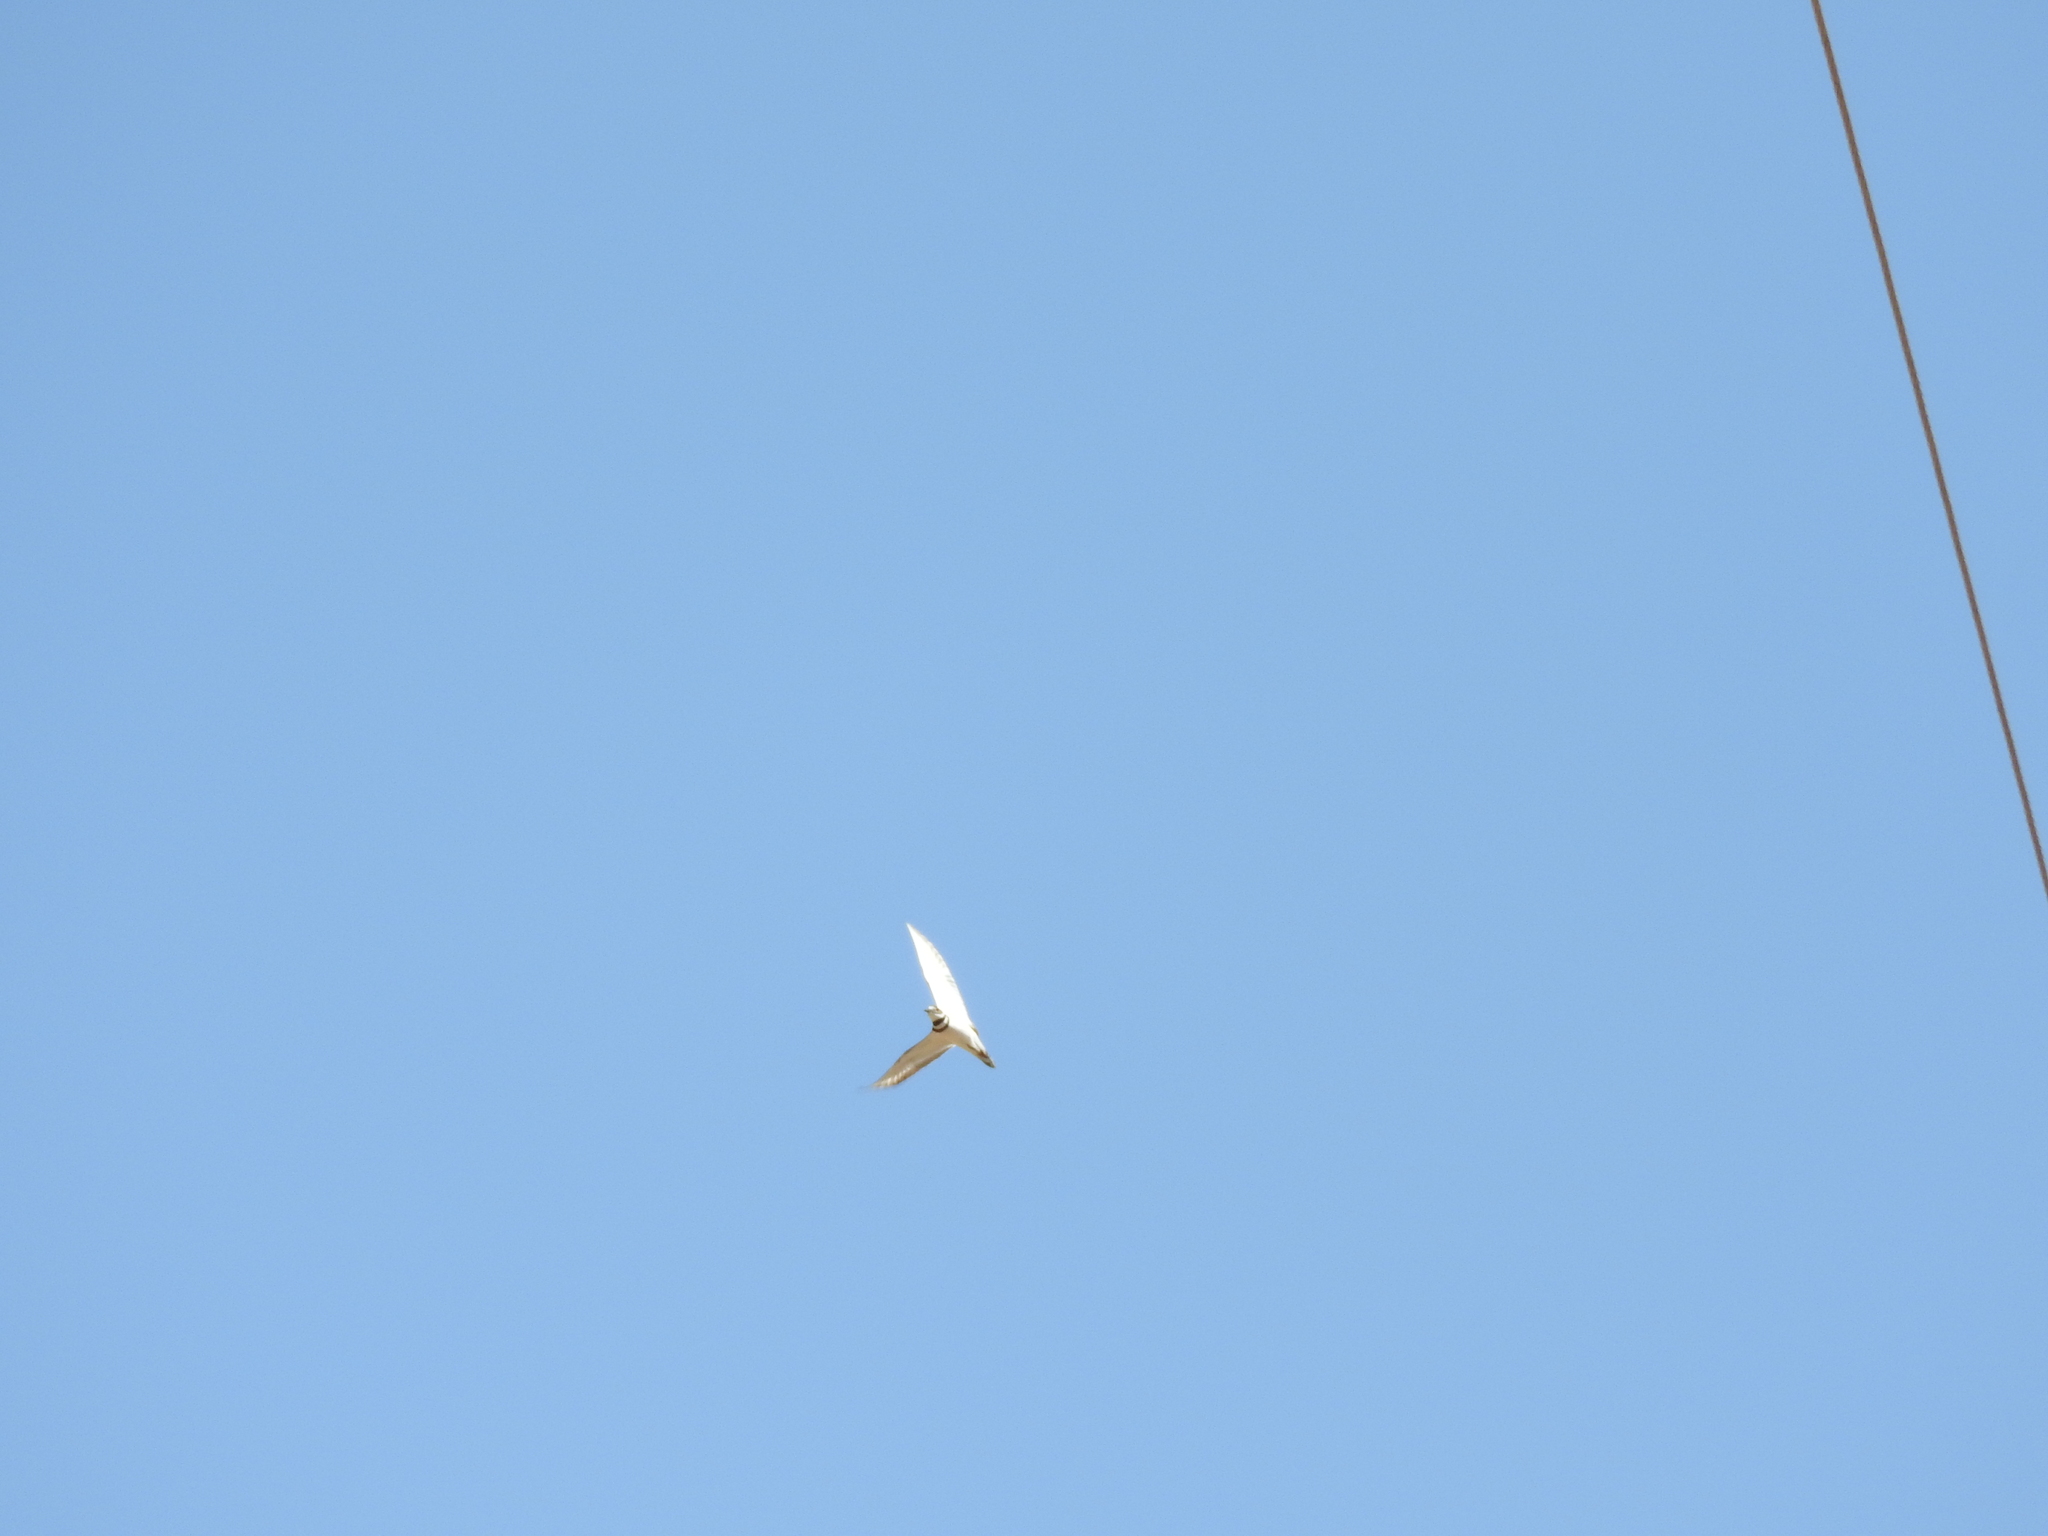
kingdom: Animalia
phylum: Chordata
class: Aves
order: Charadriiformes
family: Charadriidae
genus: Charadrius
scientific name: Charadrius vociferus
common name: Killdeer
